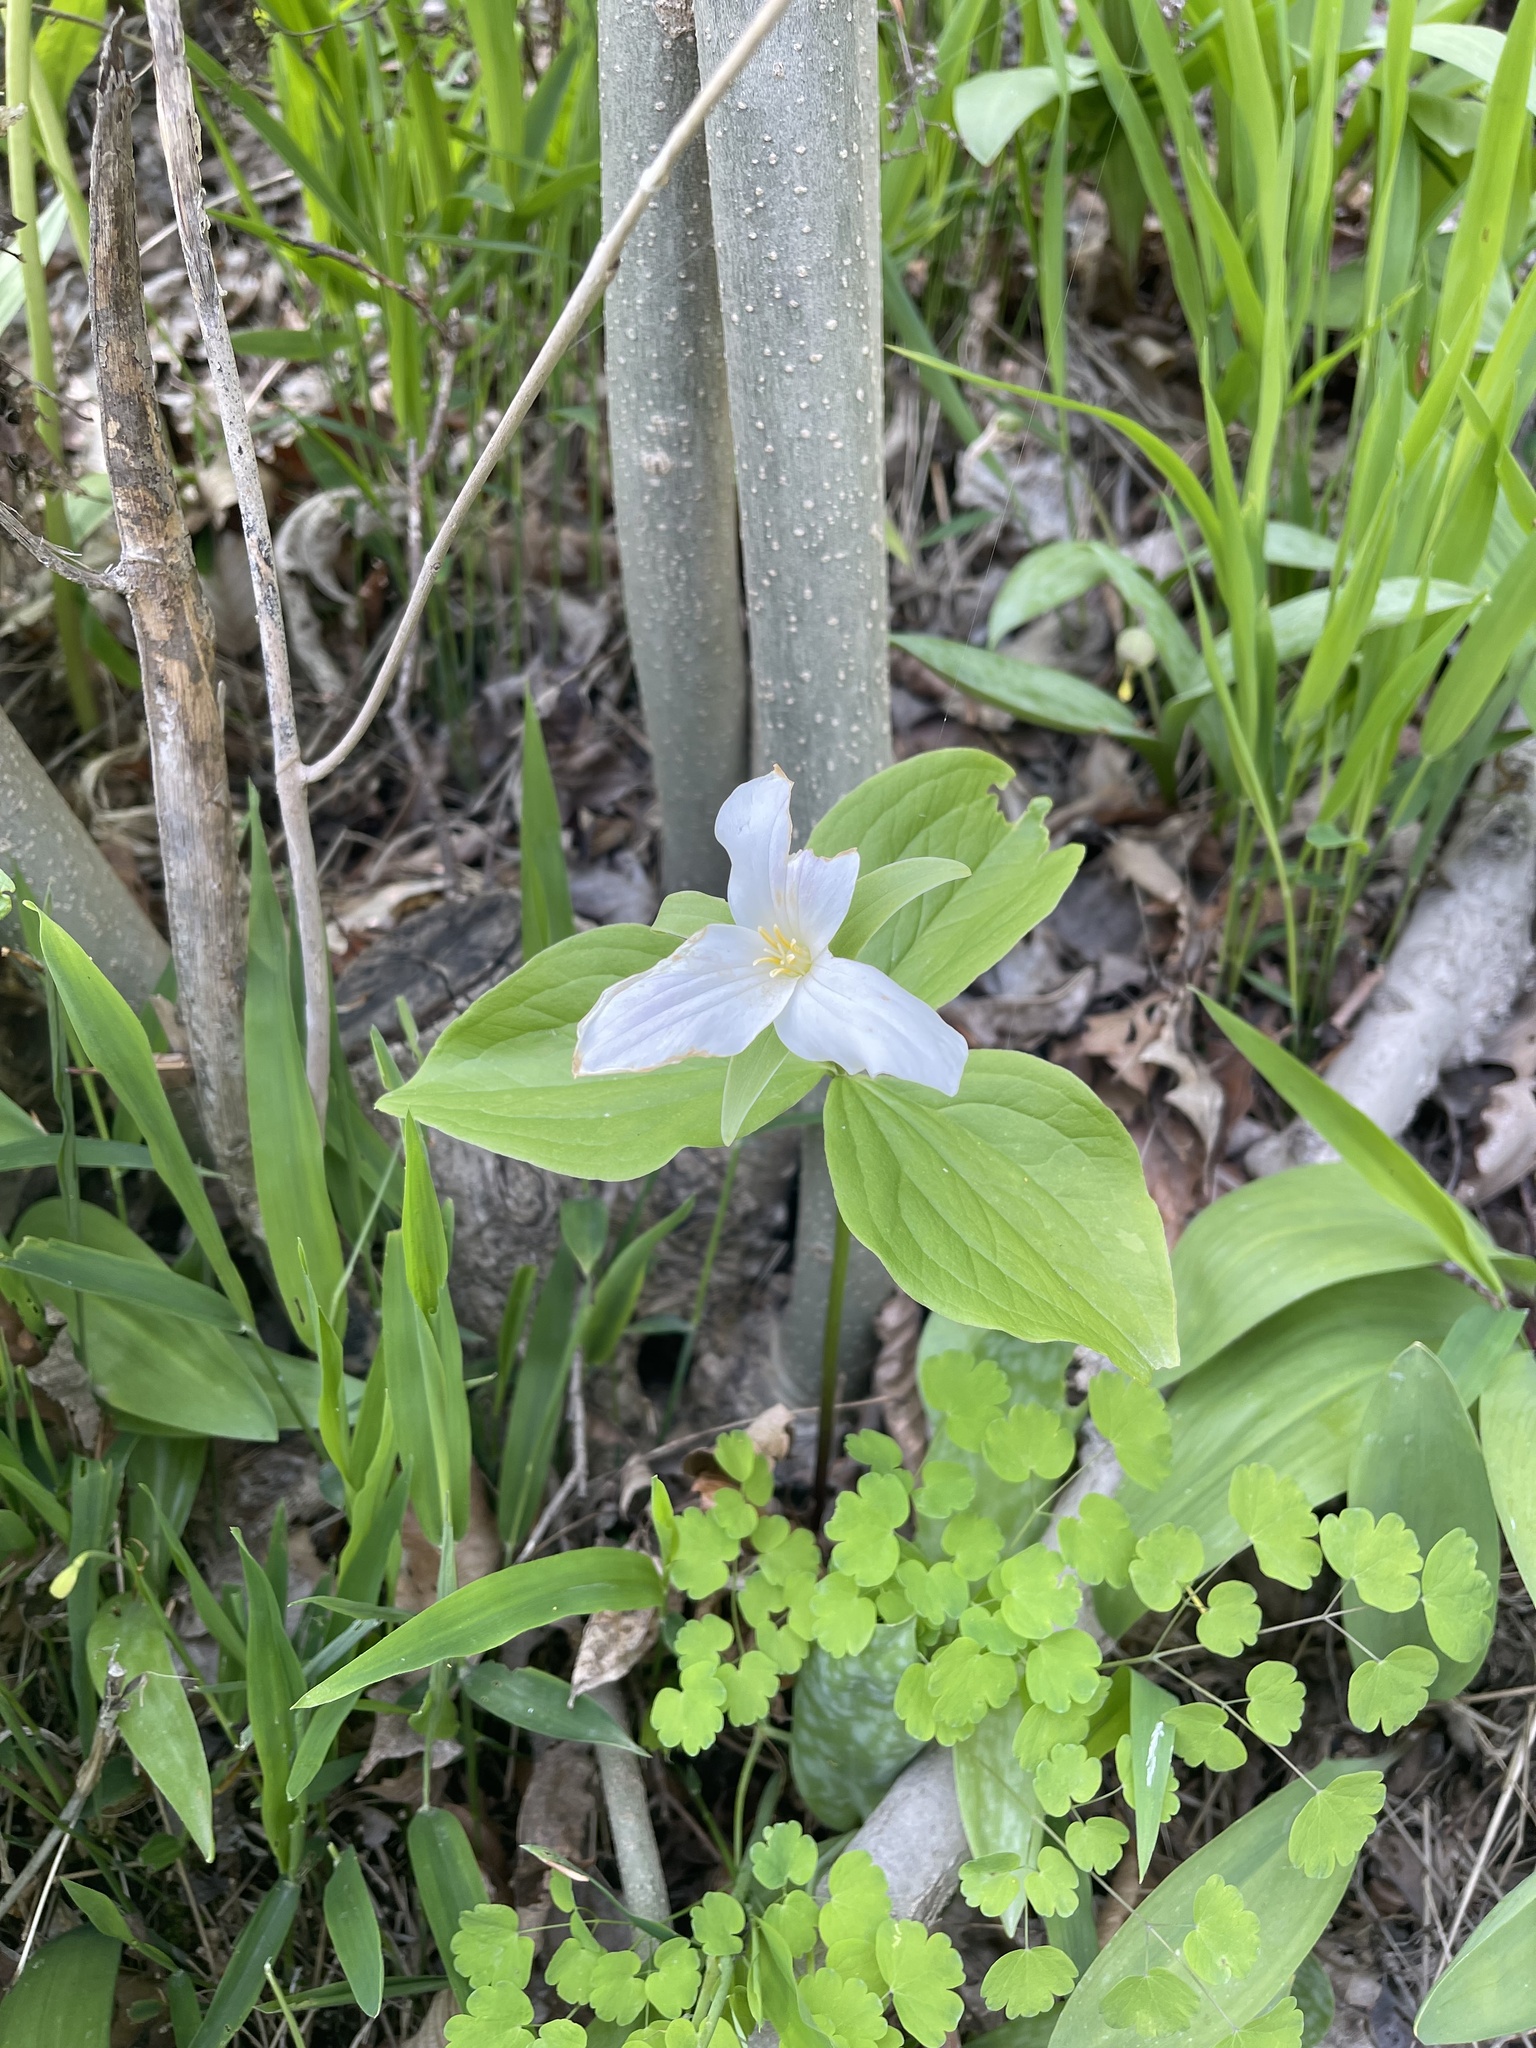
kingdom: Plantae
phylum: Tracheophyta
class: Liliopsida
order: Liliales
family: Melanthiaceae
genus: Trillium
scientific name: Trillium grandiflorum
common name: Great white trillium
